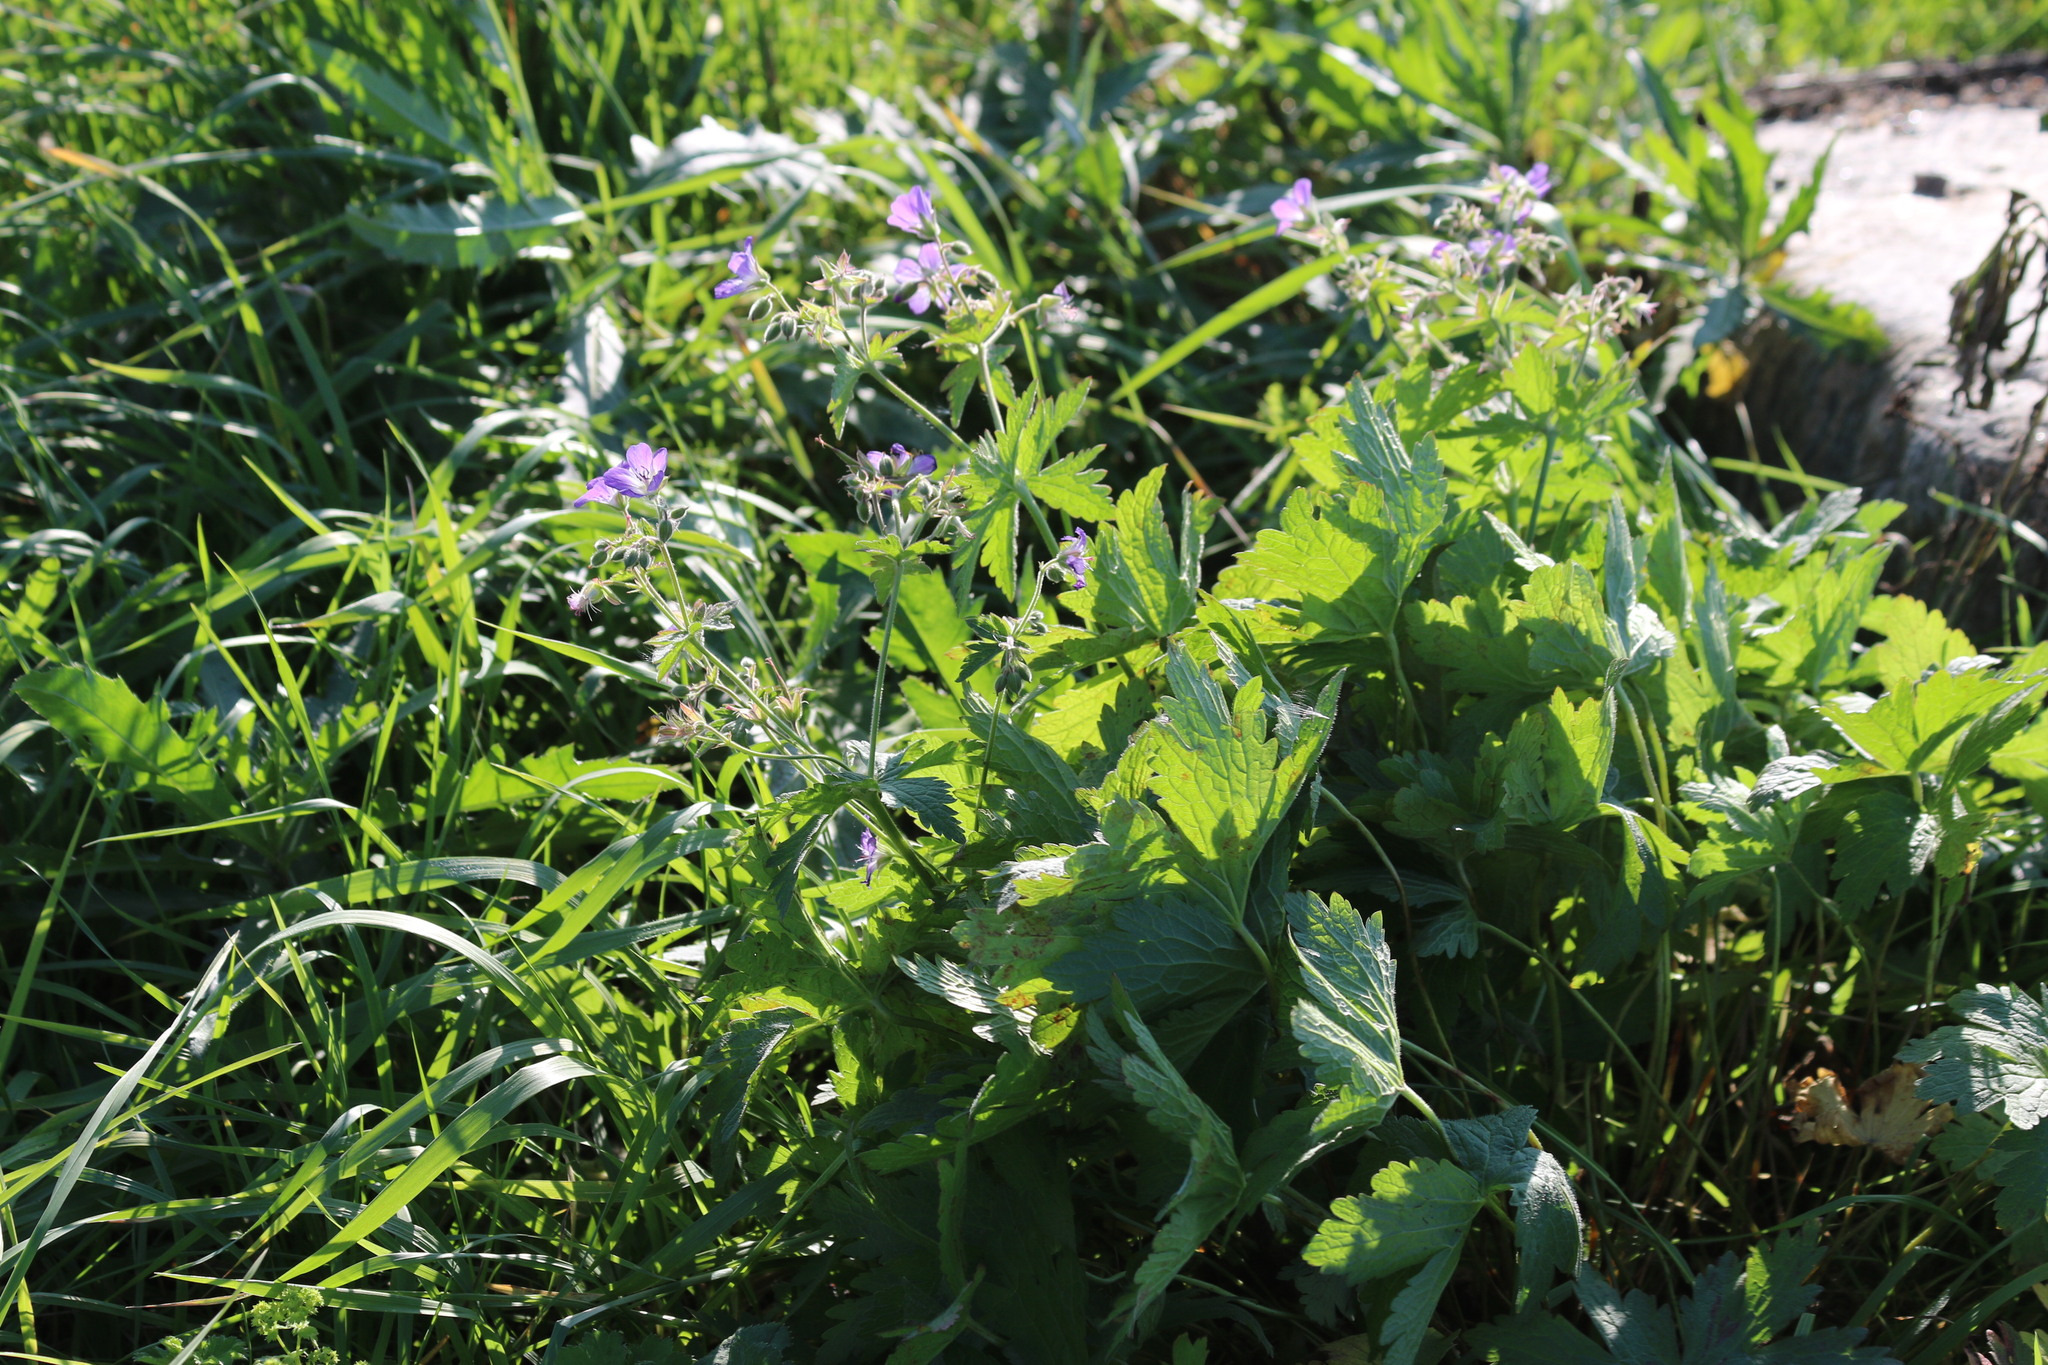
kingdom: Plantae
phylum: Tracheophyta
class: Magnoliopsida
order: Geraniales
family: Geraniaceae
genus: Geranium
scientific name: Geranium sylvaticum
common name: Wood crane's-bill
